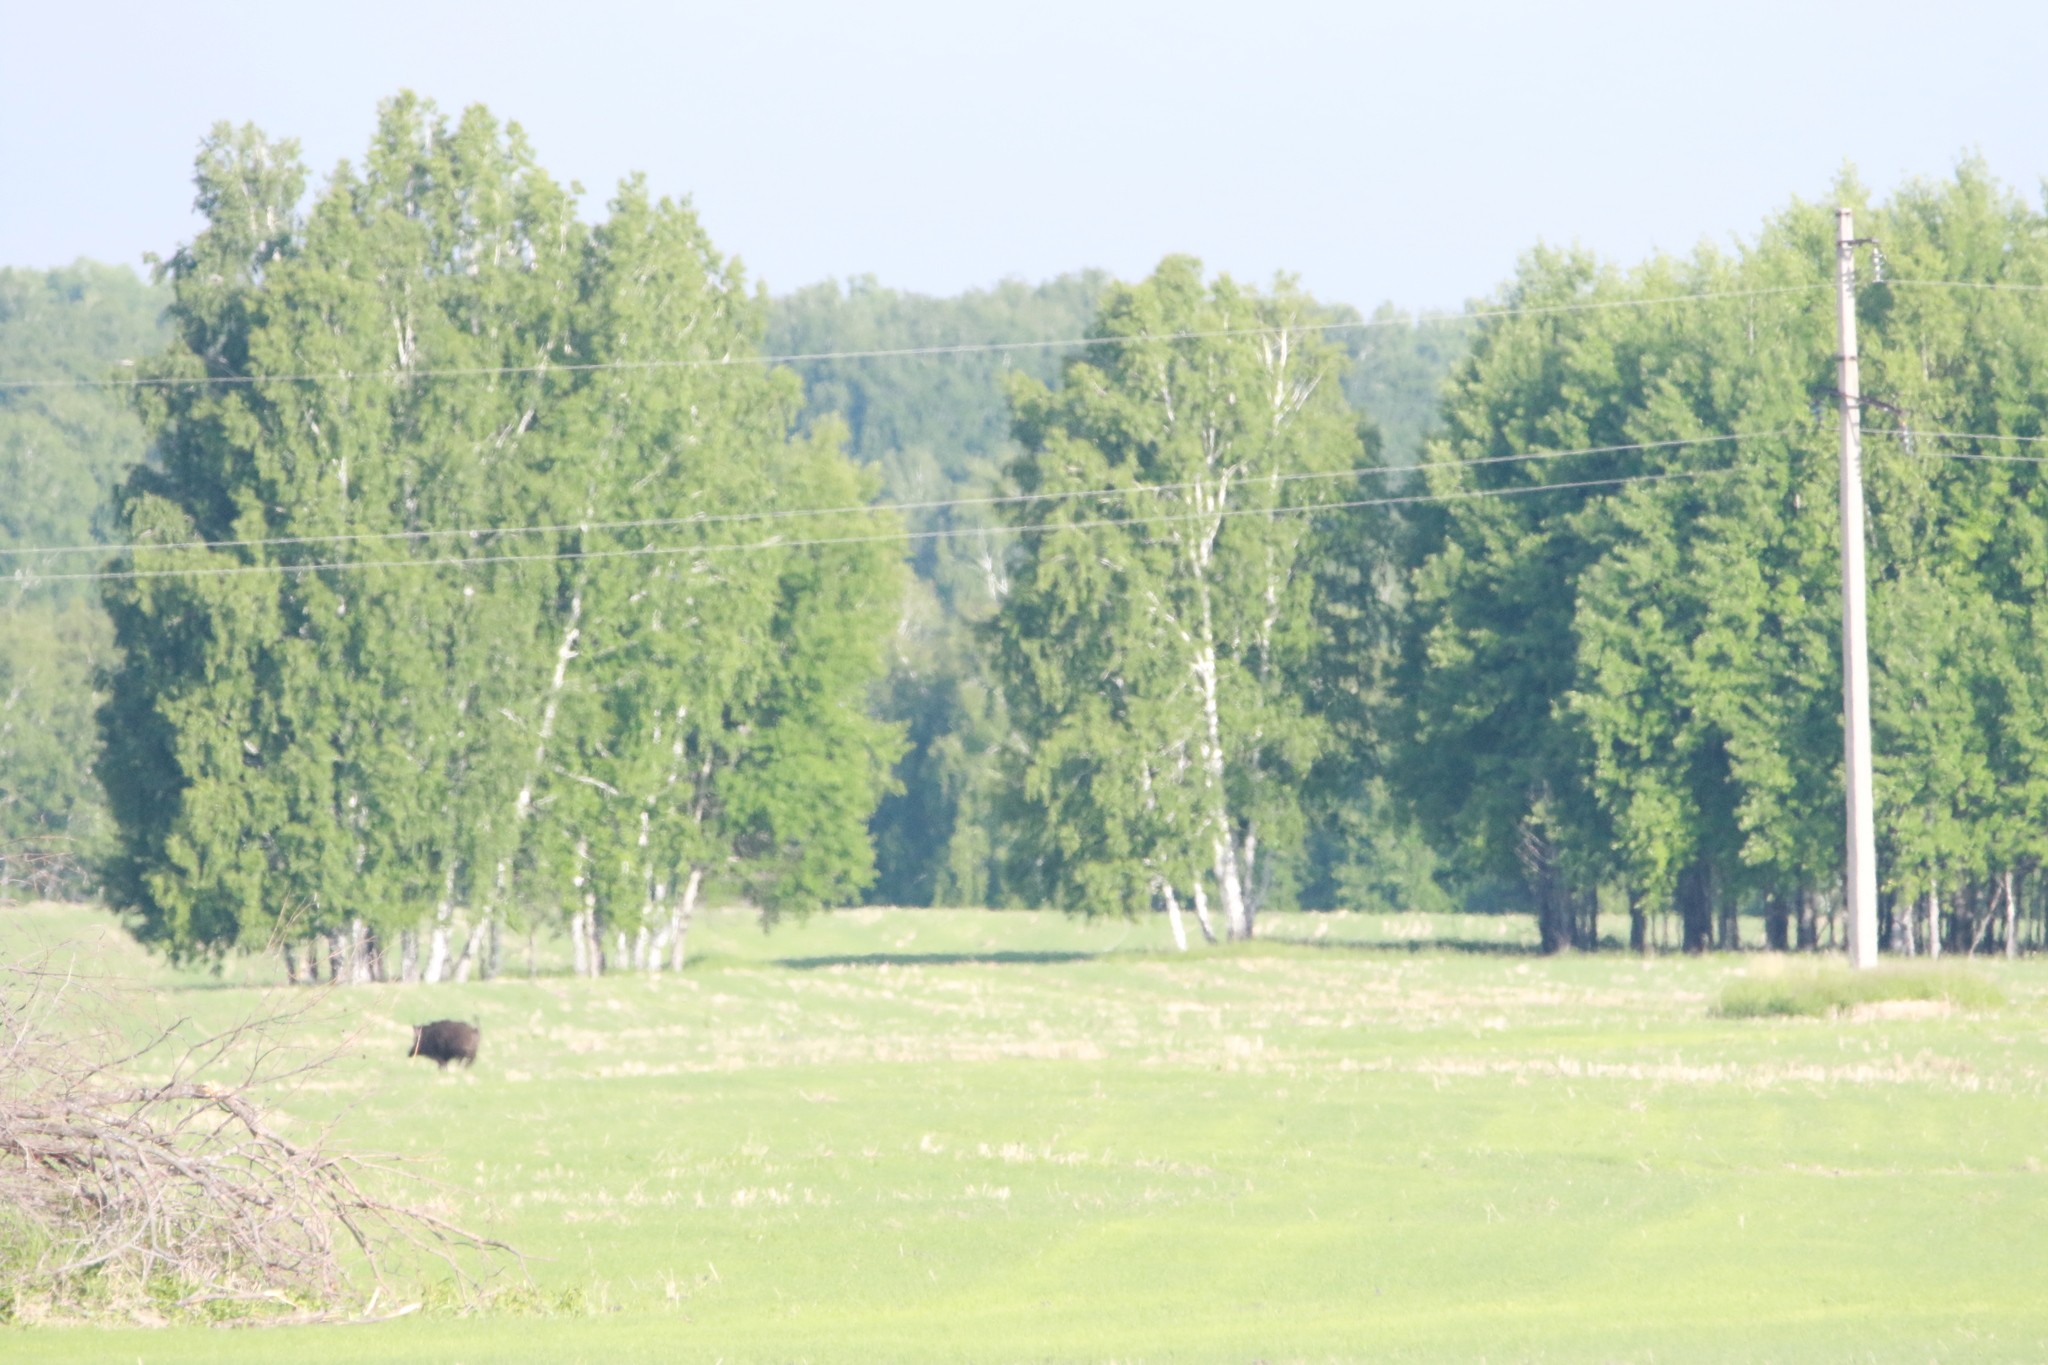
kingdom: Animalia
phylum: Chordata
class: Mammalia
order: Artiodactyla
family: Suidae
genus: Sus
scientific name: Sus scrofa
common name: Wild boar
